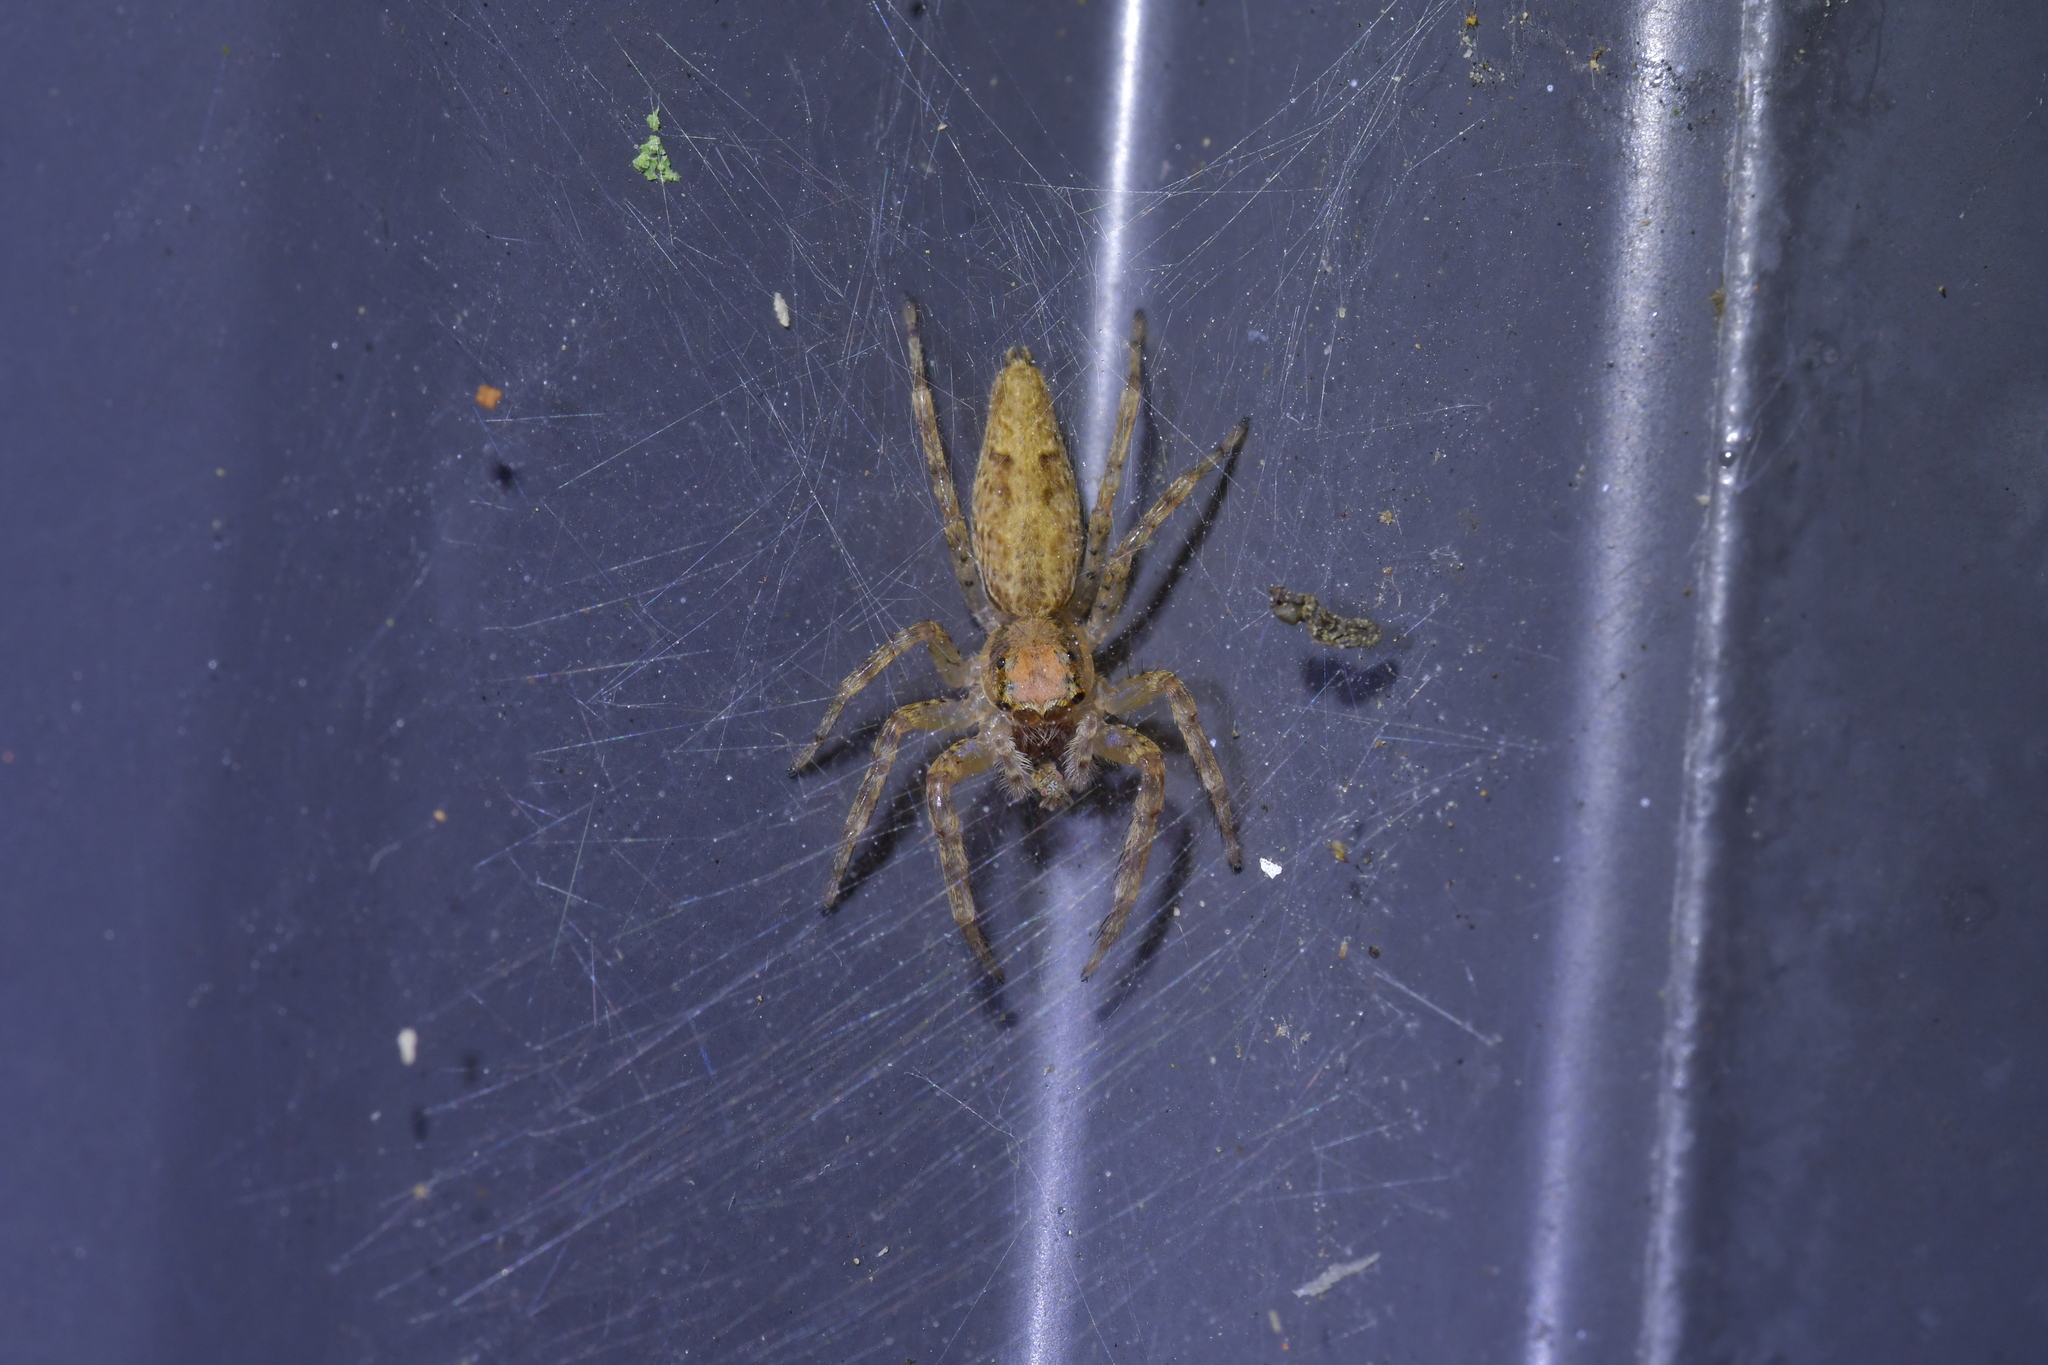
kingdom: Animalia
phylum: Arthropoda
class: Arachnida
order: Araneae
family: Salticidae
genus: Helpis
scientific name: Helpis minitabunda
